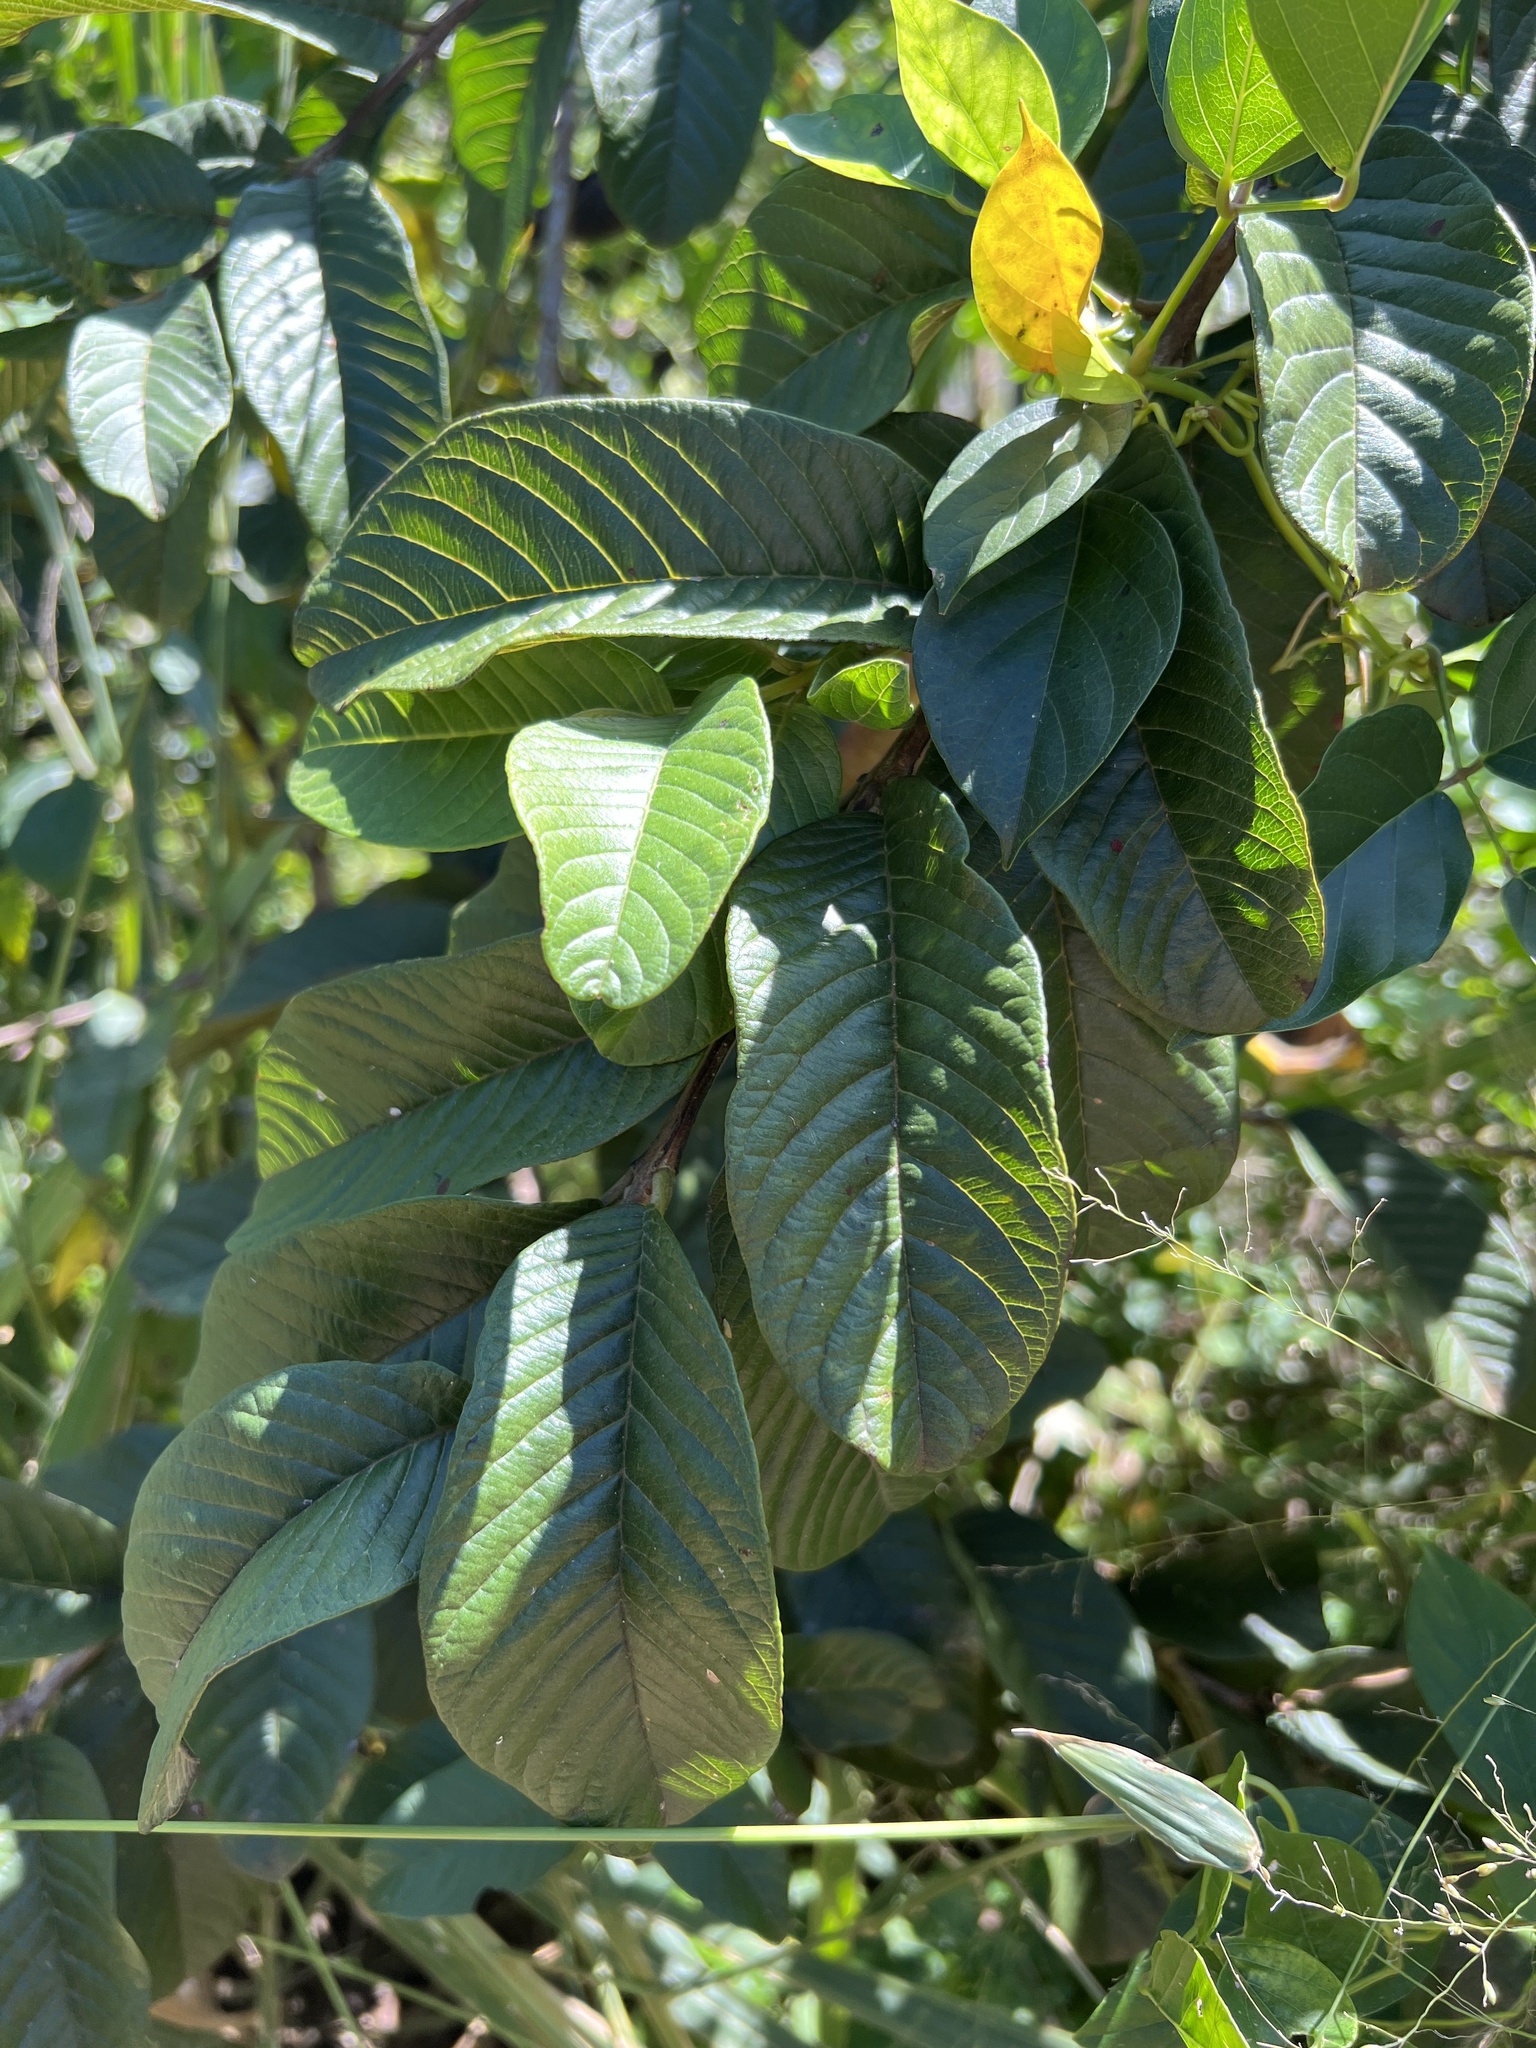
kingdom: Plantae
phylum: Tracheophyta
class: Magnoliopsida
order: Myrtales
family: Myrtaceae
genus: Psidium
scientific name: Psidium guajava
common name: Guava
